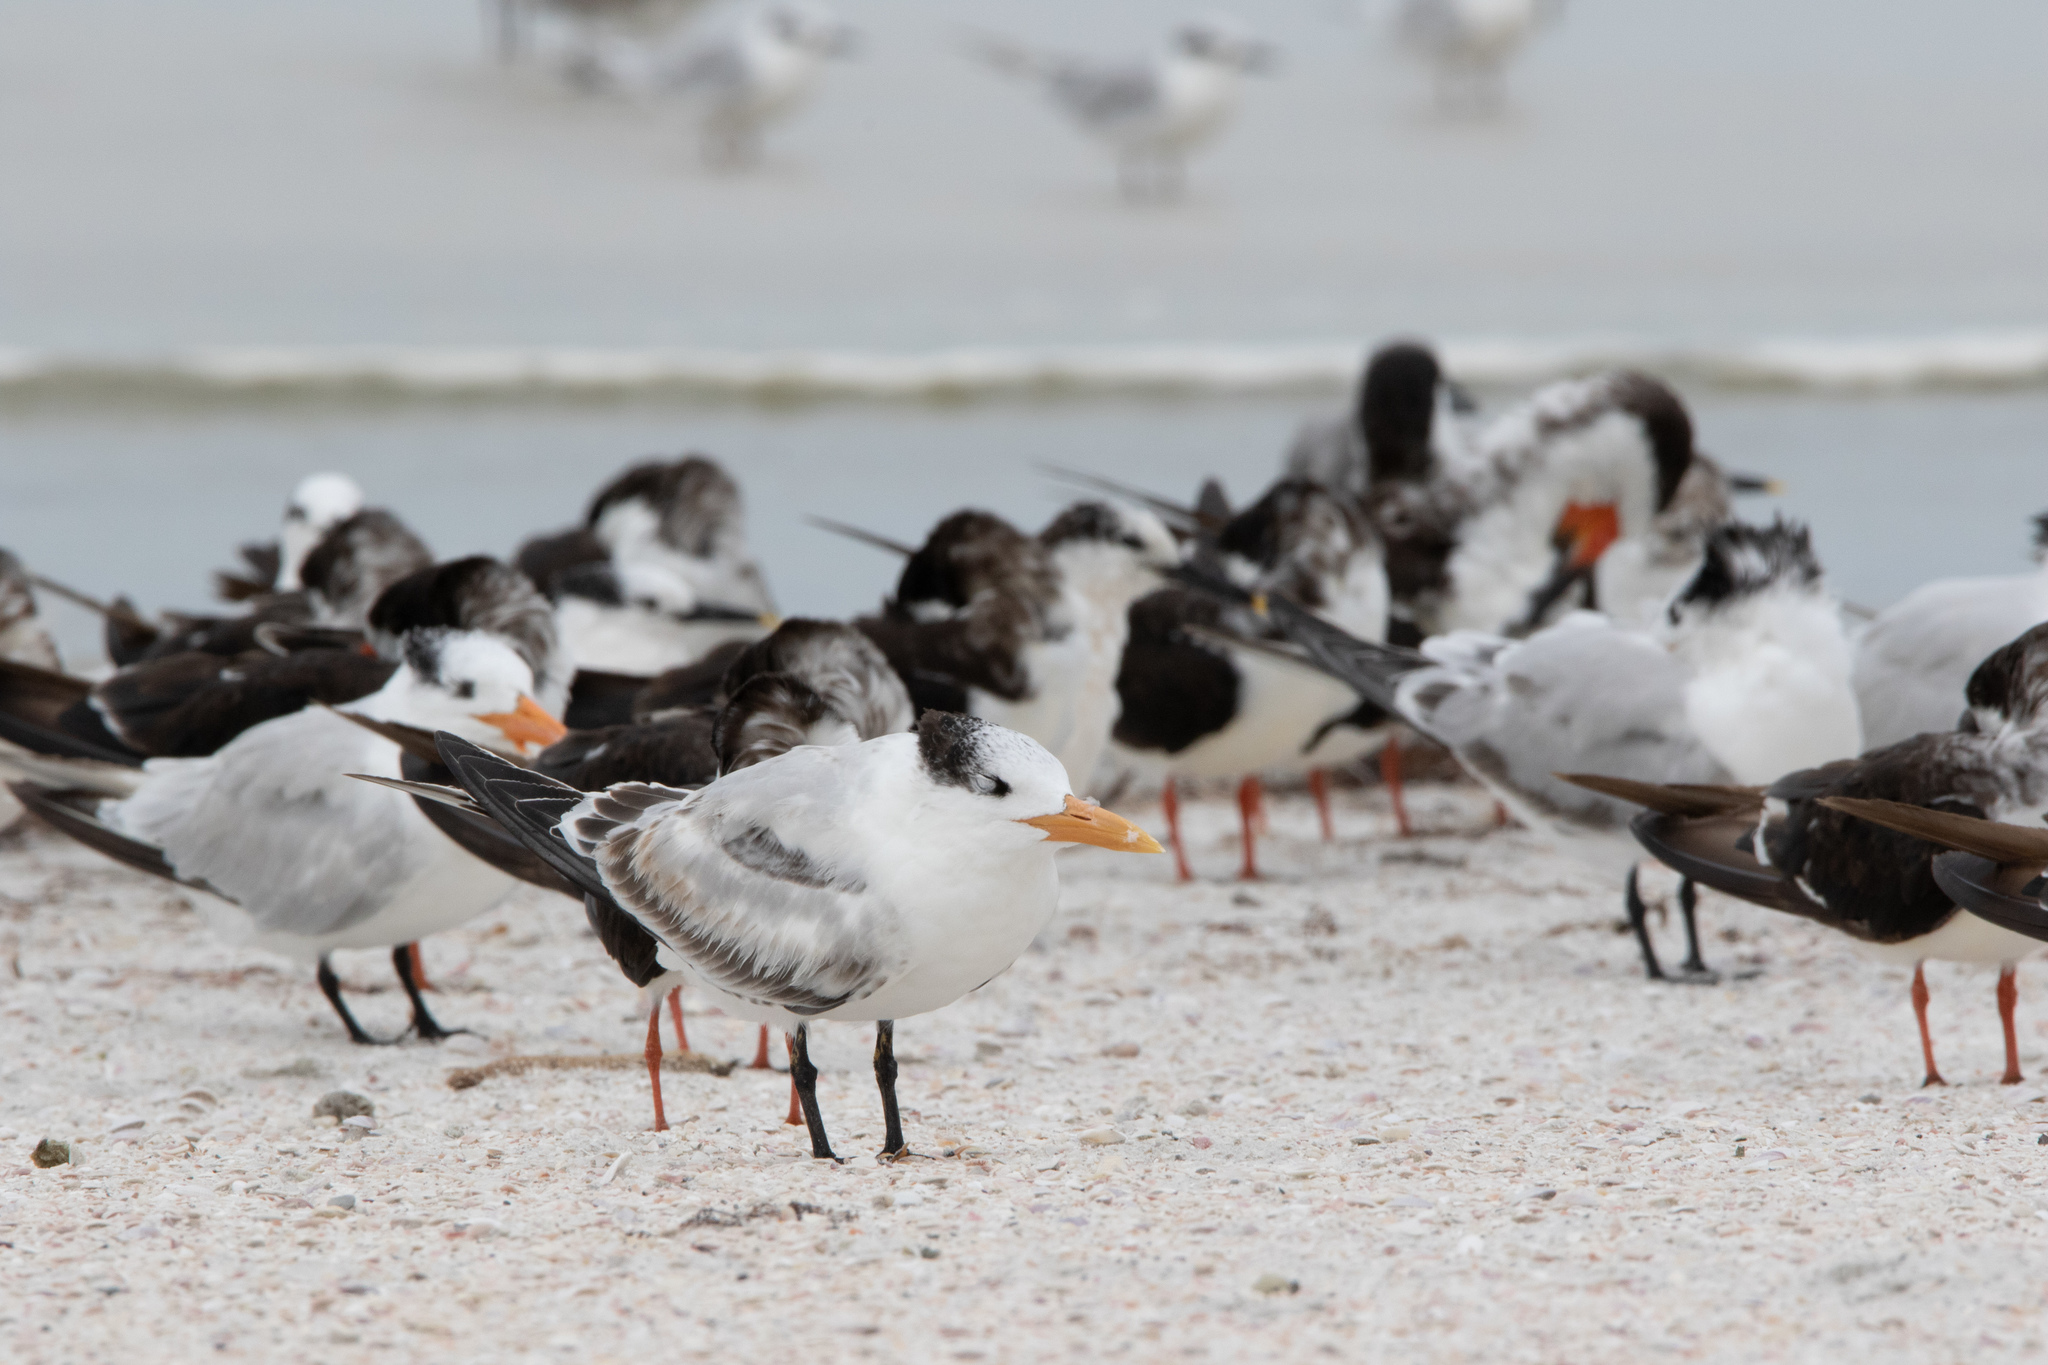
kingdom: Animalia
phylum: Chordata
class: Aves
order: Charadriiformes
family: Laridae
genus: Thalasseus
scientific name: Thalasseus maximus
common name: Royal tern
